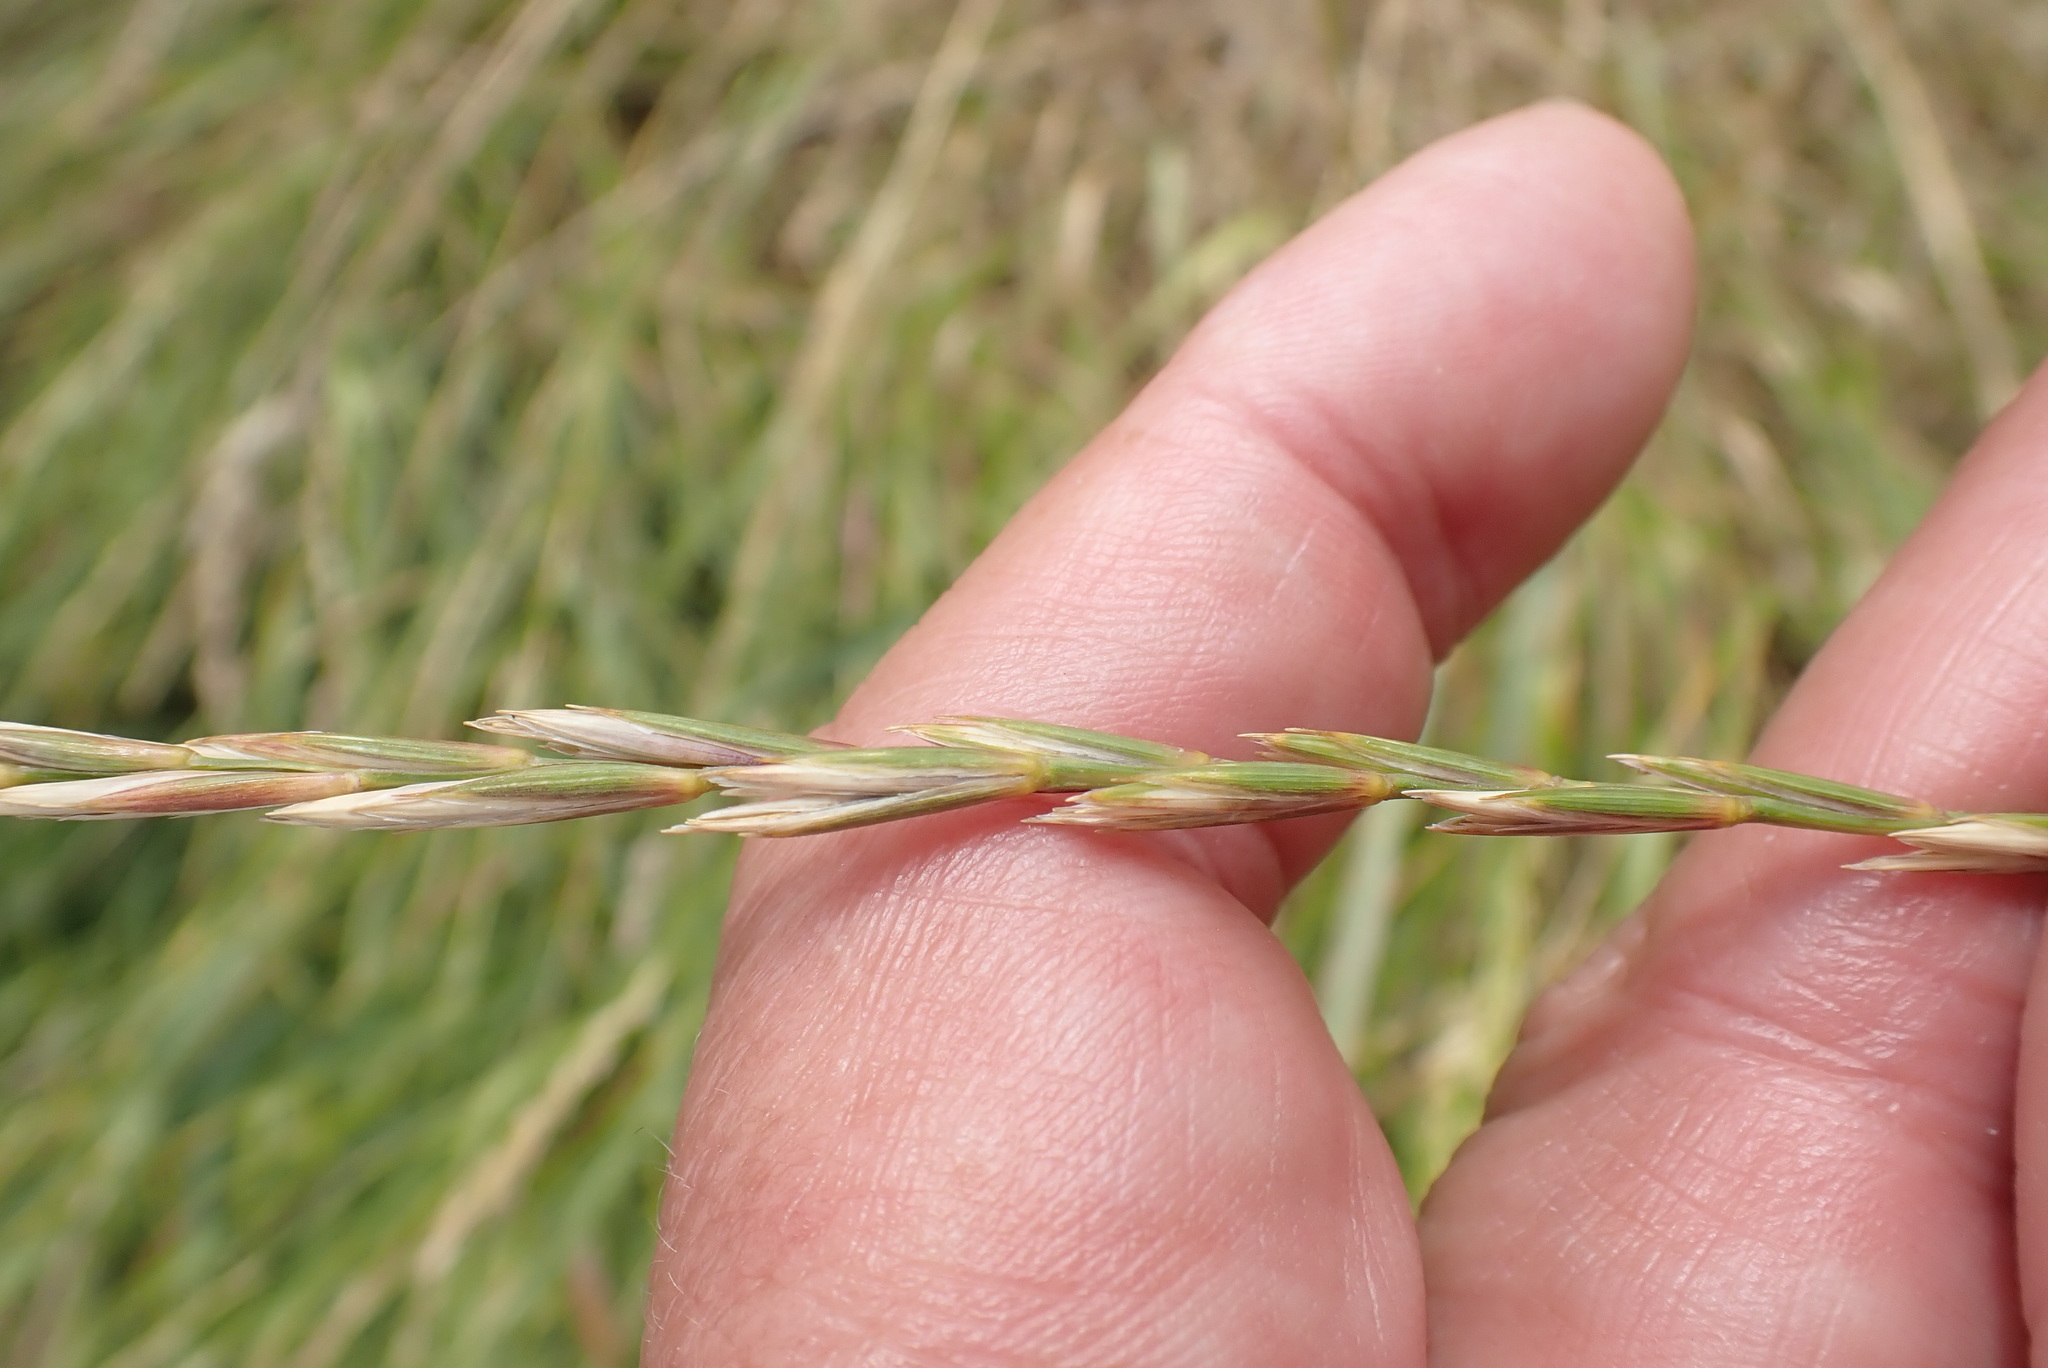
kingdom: Plantae
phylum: Tracheophyta
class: Liliopsida
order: Poales
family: Poaceae
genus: Elymus
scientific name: Elymus repens
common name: Quackgrass
